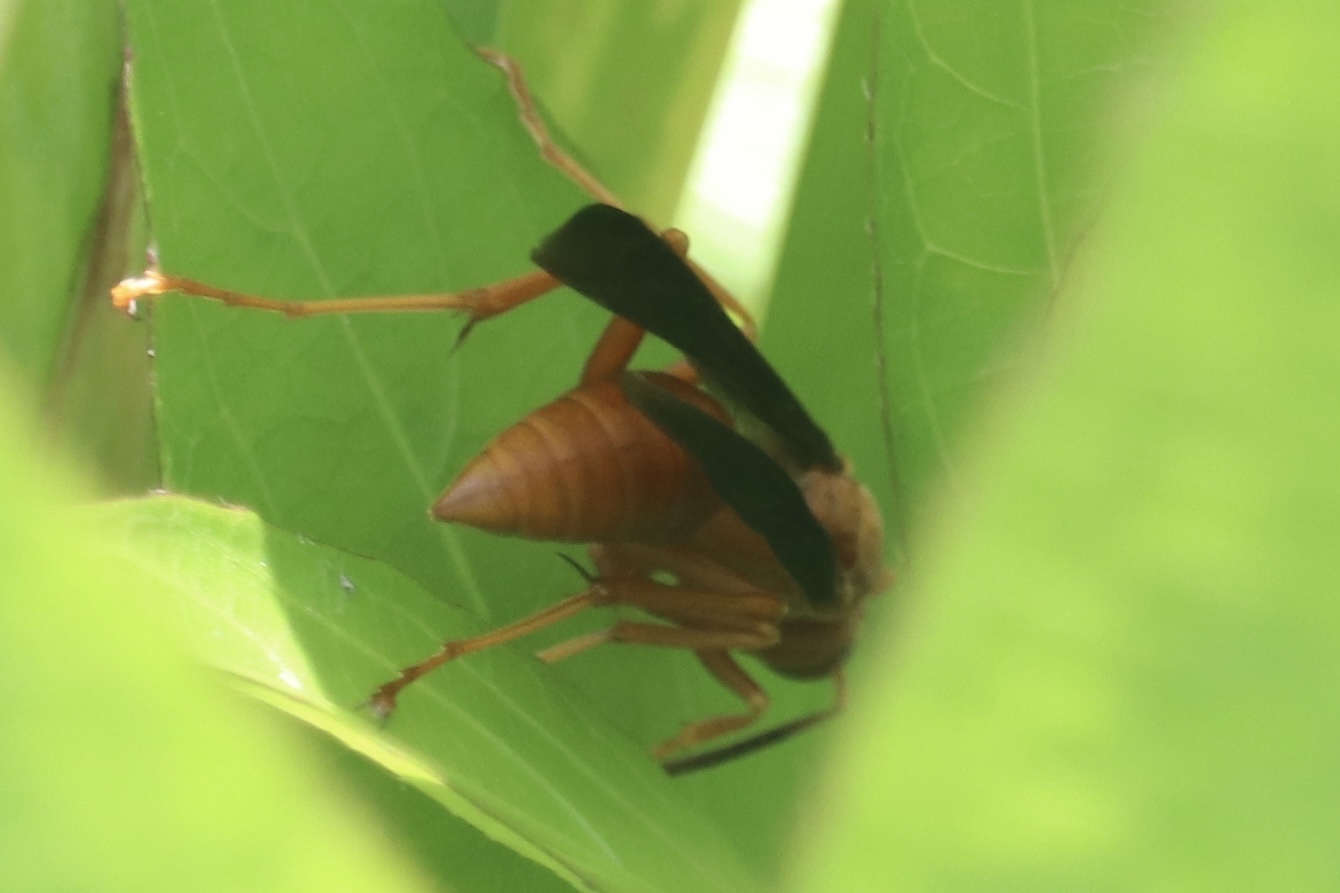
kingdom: Animalia
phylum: Arthropoda
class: Insecta
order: Hymenoptera
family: Vespidae
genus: Fuscopolistes
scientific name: Fuscopolistes
